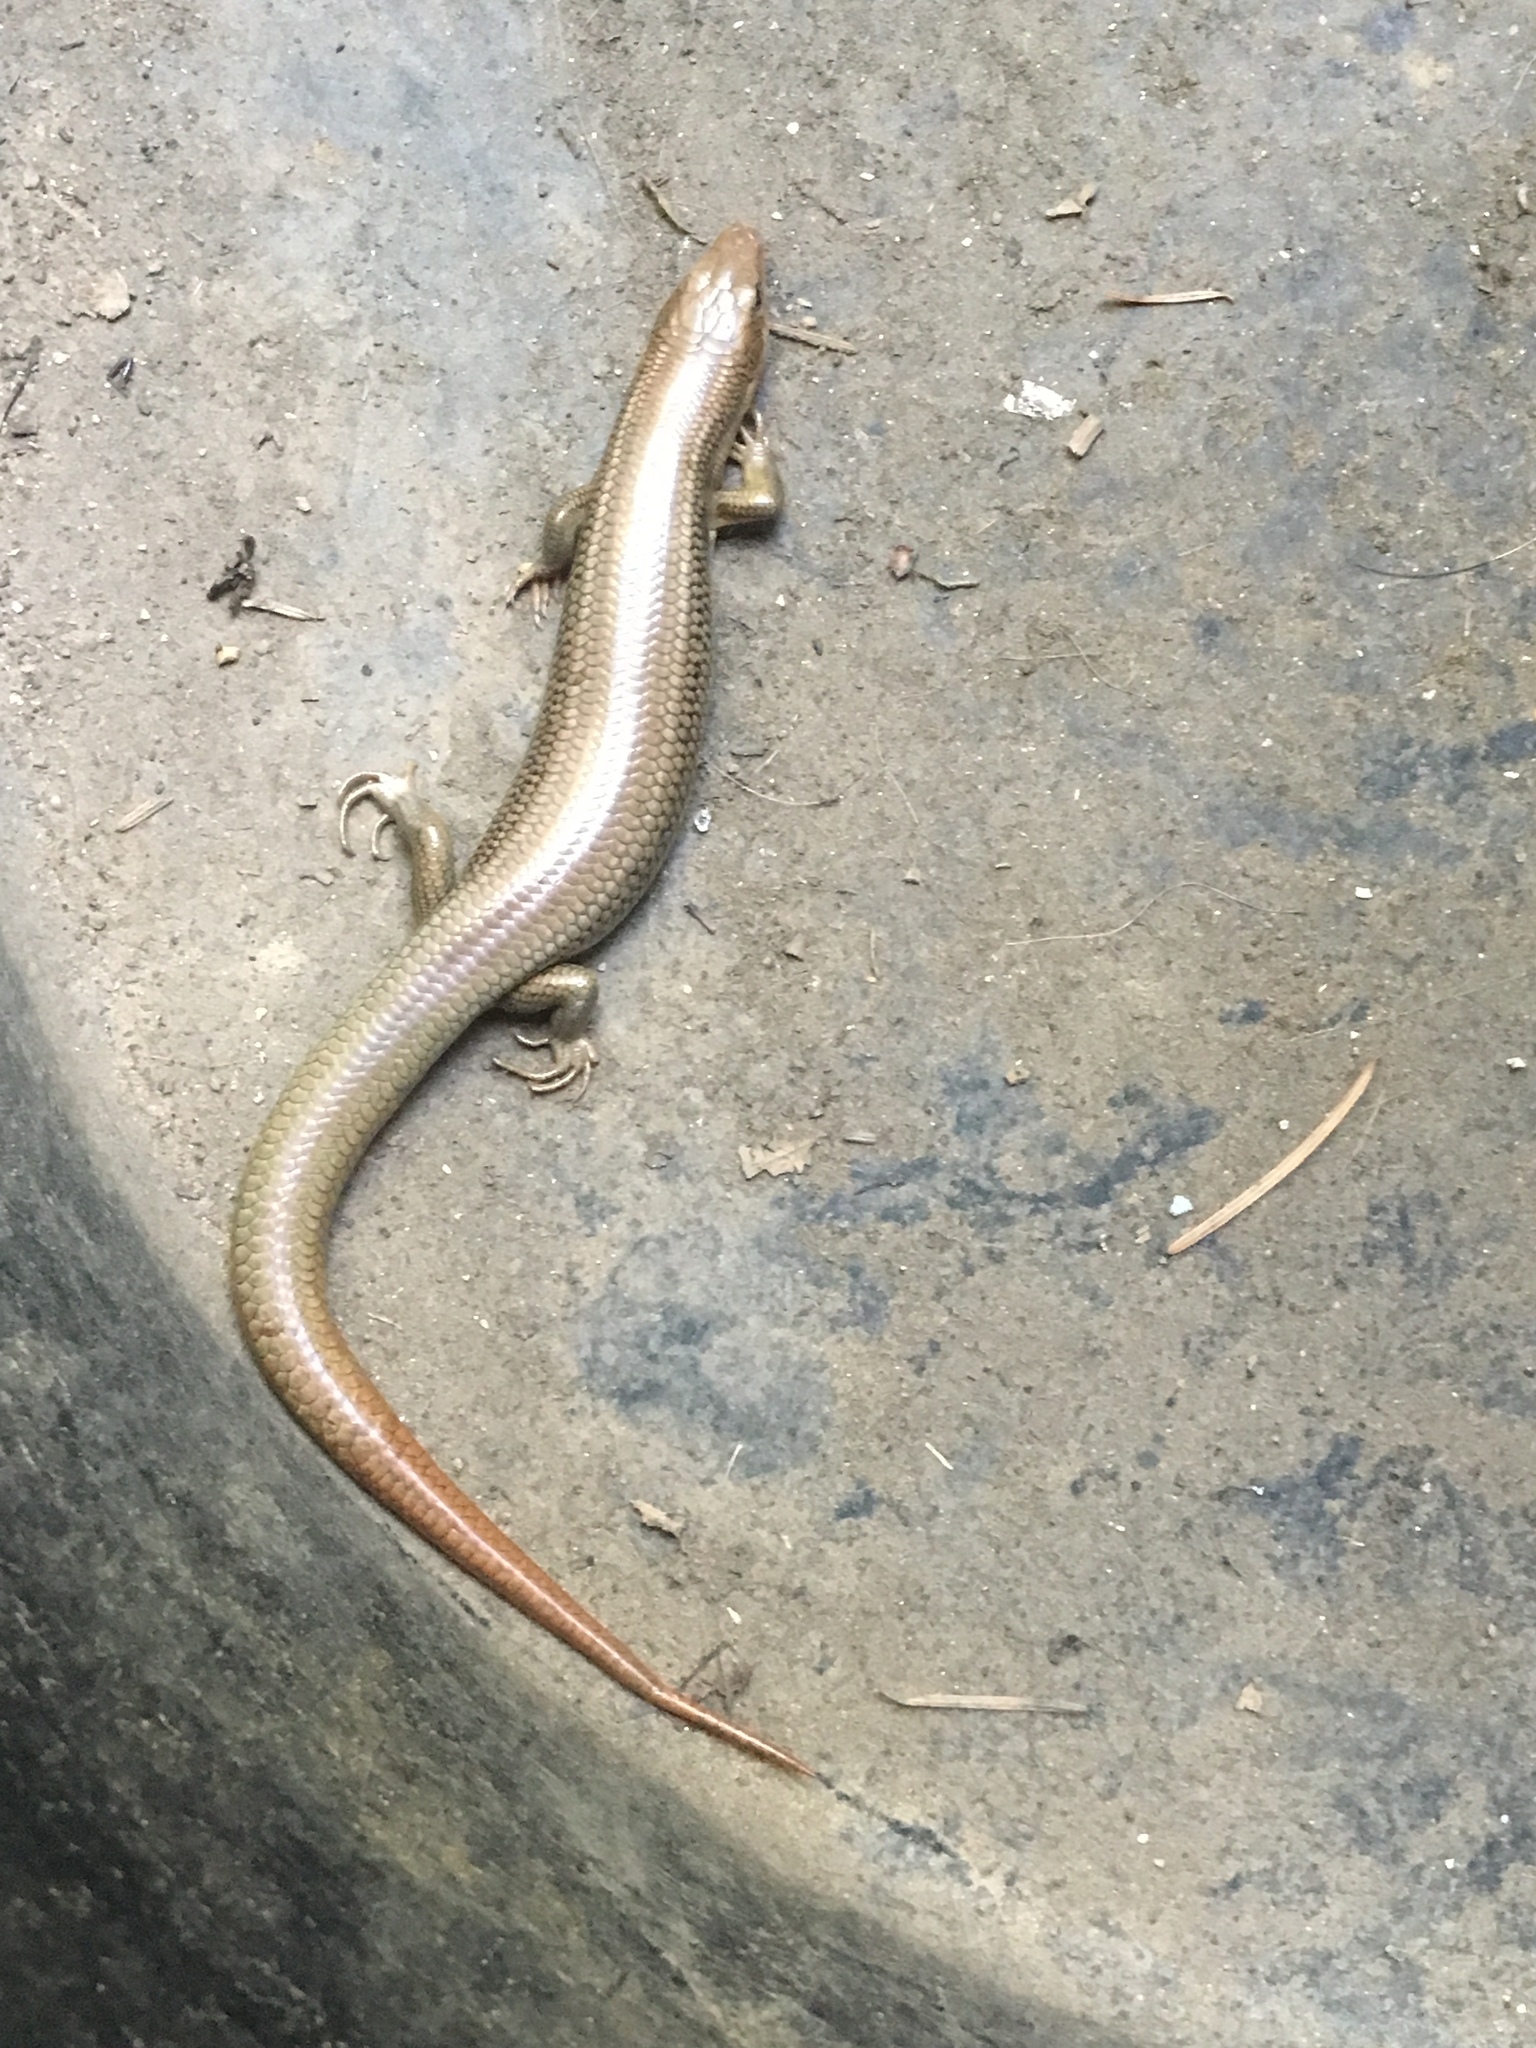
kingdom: Animalia
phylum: Chordata
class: Squamata
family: Scincidae
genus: Plestiodon
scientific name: Plestiodon gilberti
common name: Gilbert's skink
